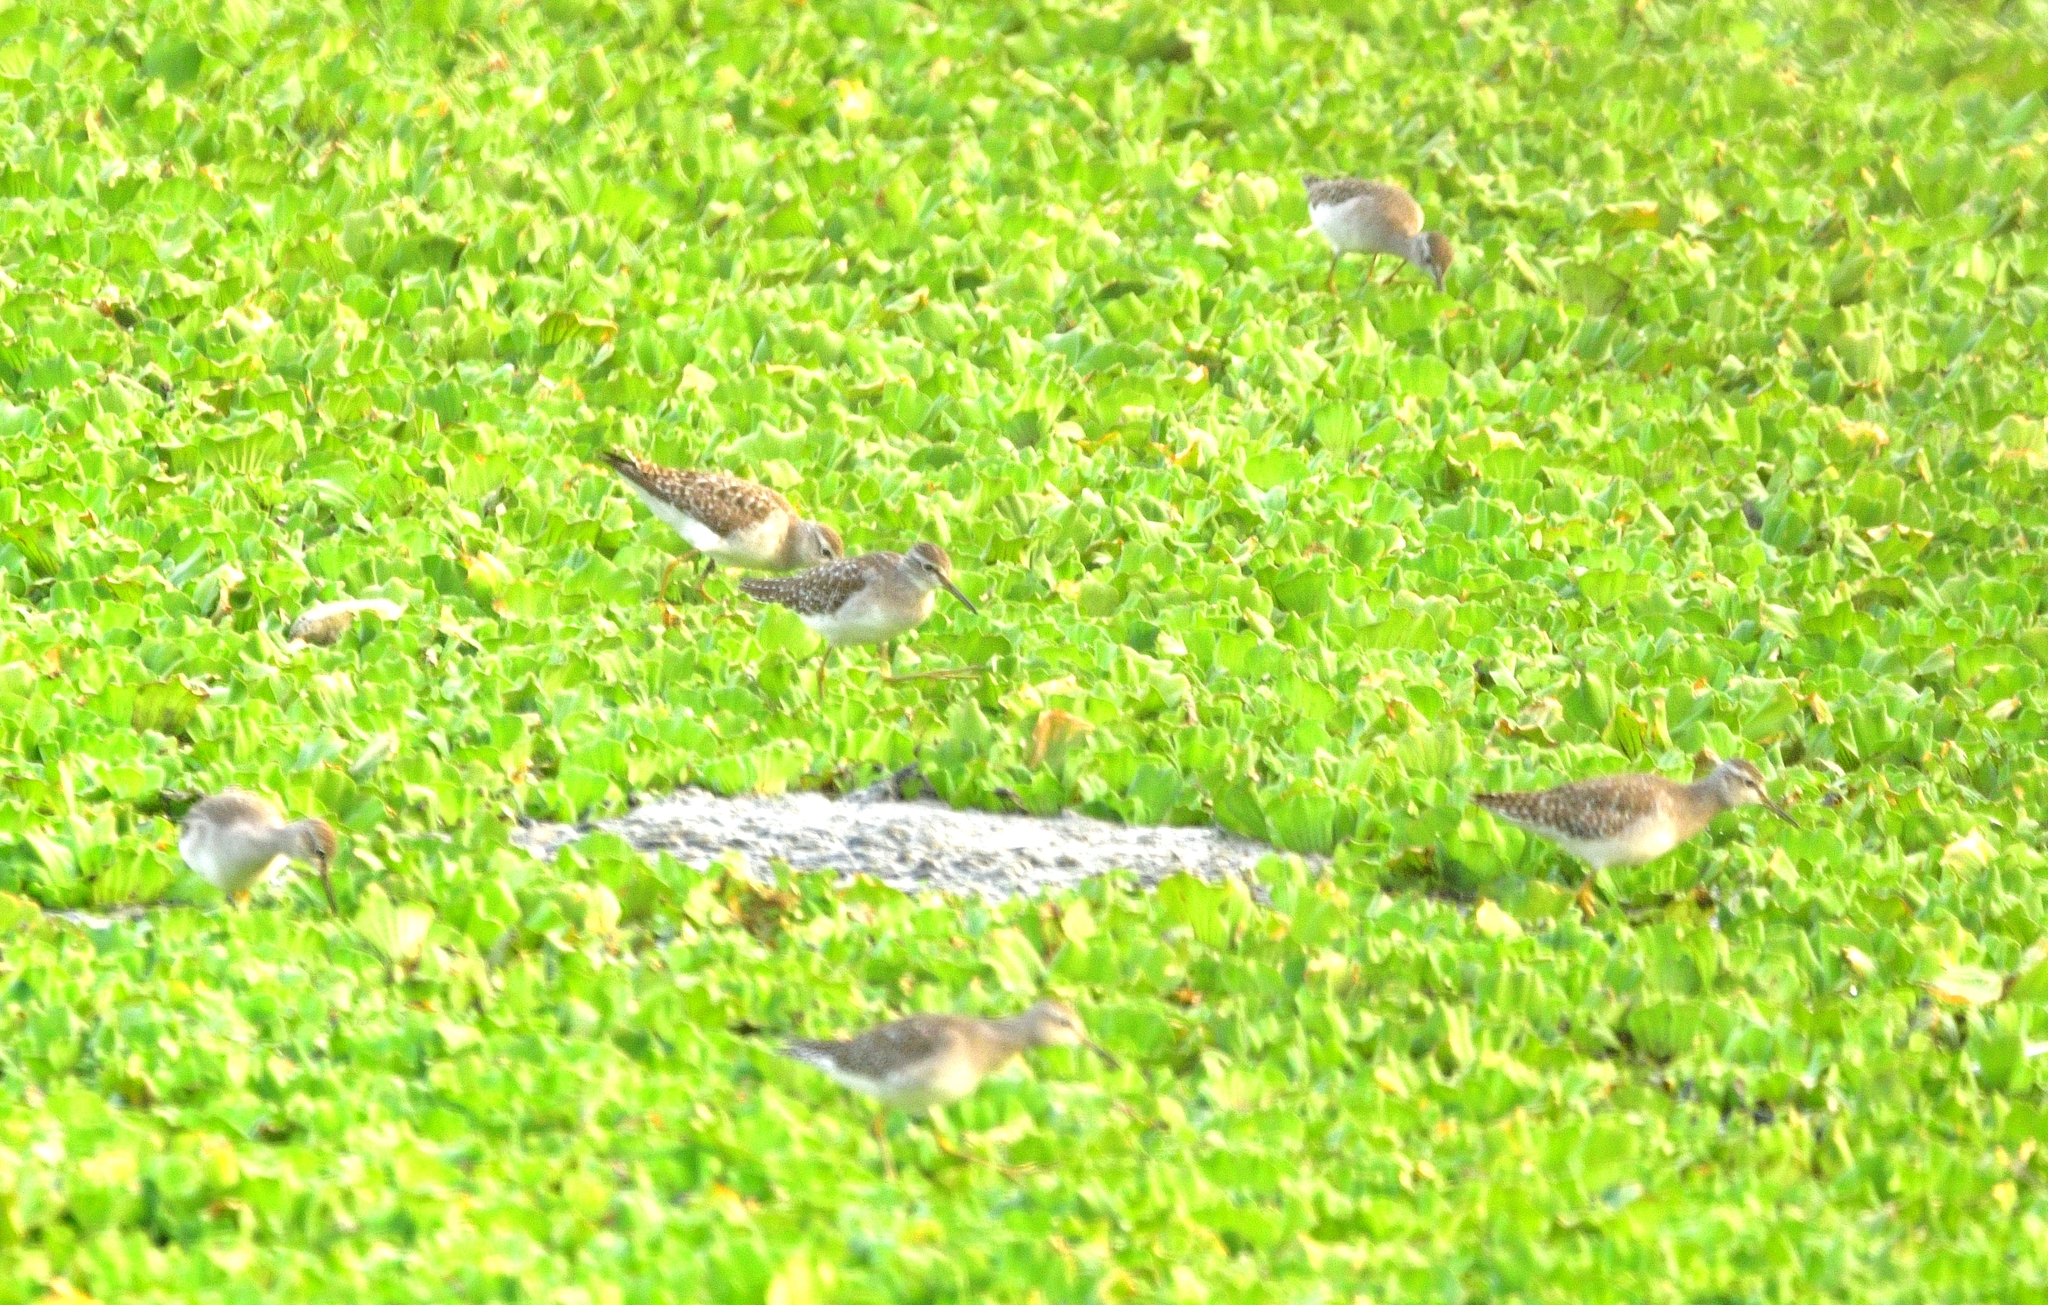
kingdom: Animalia
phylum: Chordata
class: Aves
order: Charadriiformes
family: Scolopacidae
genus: Tringa
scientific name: Tringa glareola
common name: Wood sandpiper
